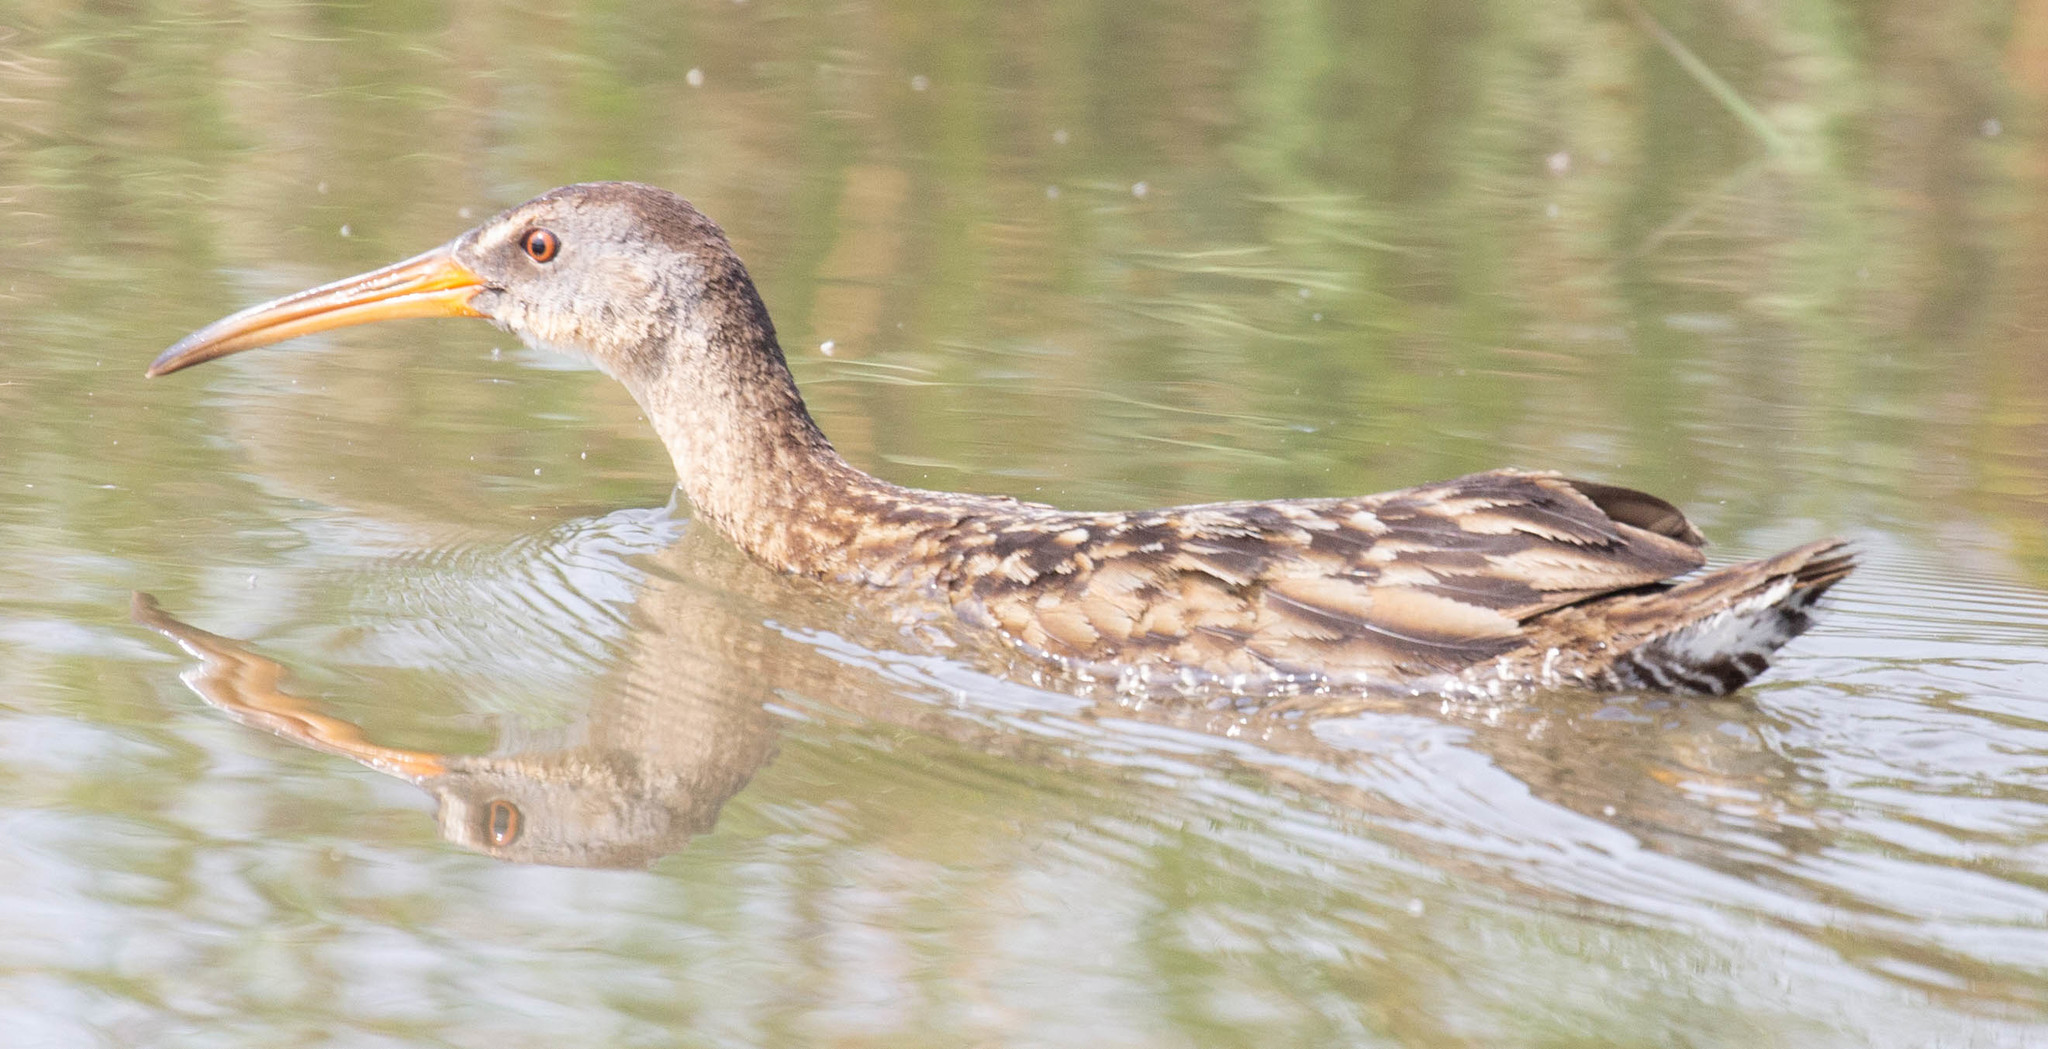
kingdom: Animalia
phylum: Chordata
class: Aves
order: Gruiformes
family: Rallidae
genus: Rallus
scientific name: Rallus crepitans
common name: Clapper rail
